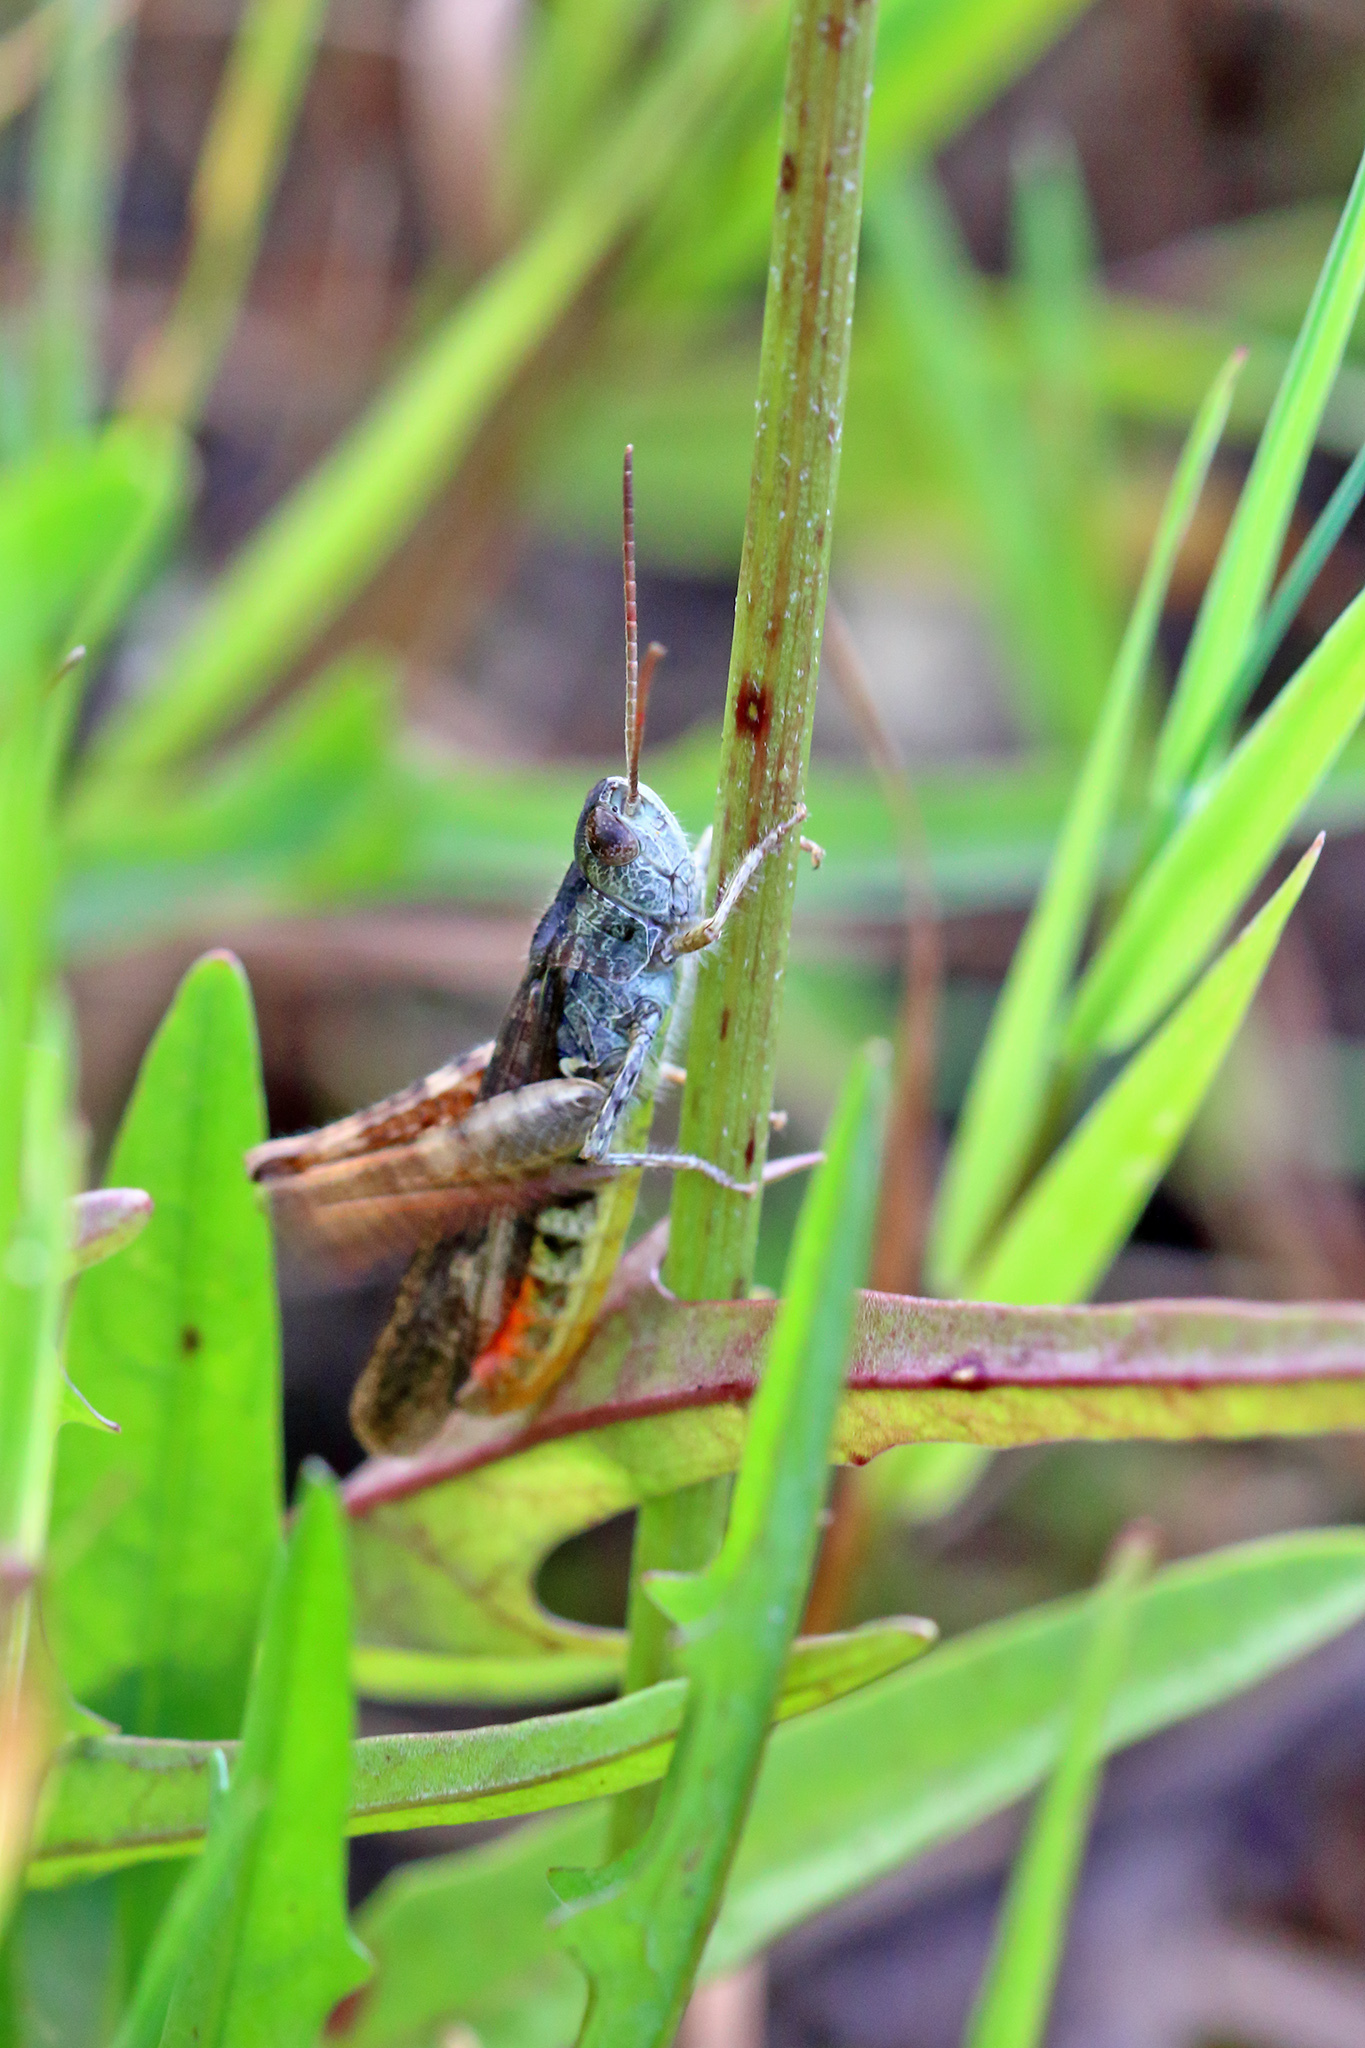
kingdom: Animalia
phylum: Arthropoda
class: Insecta
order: Orthoptera
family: Acrididae
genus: Chorthippus
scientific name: Chorthippus brunneus
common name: Field grasshopper
